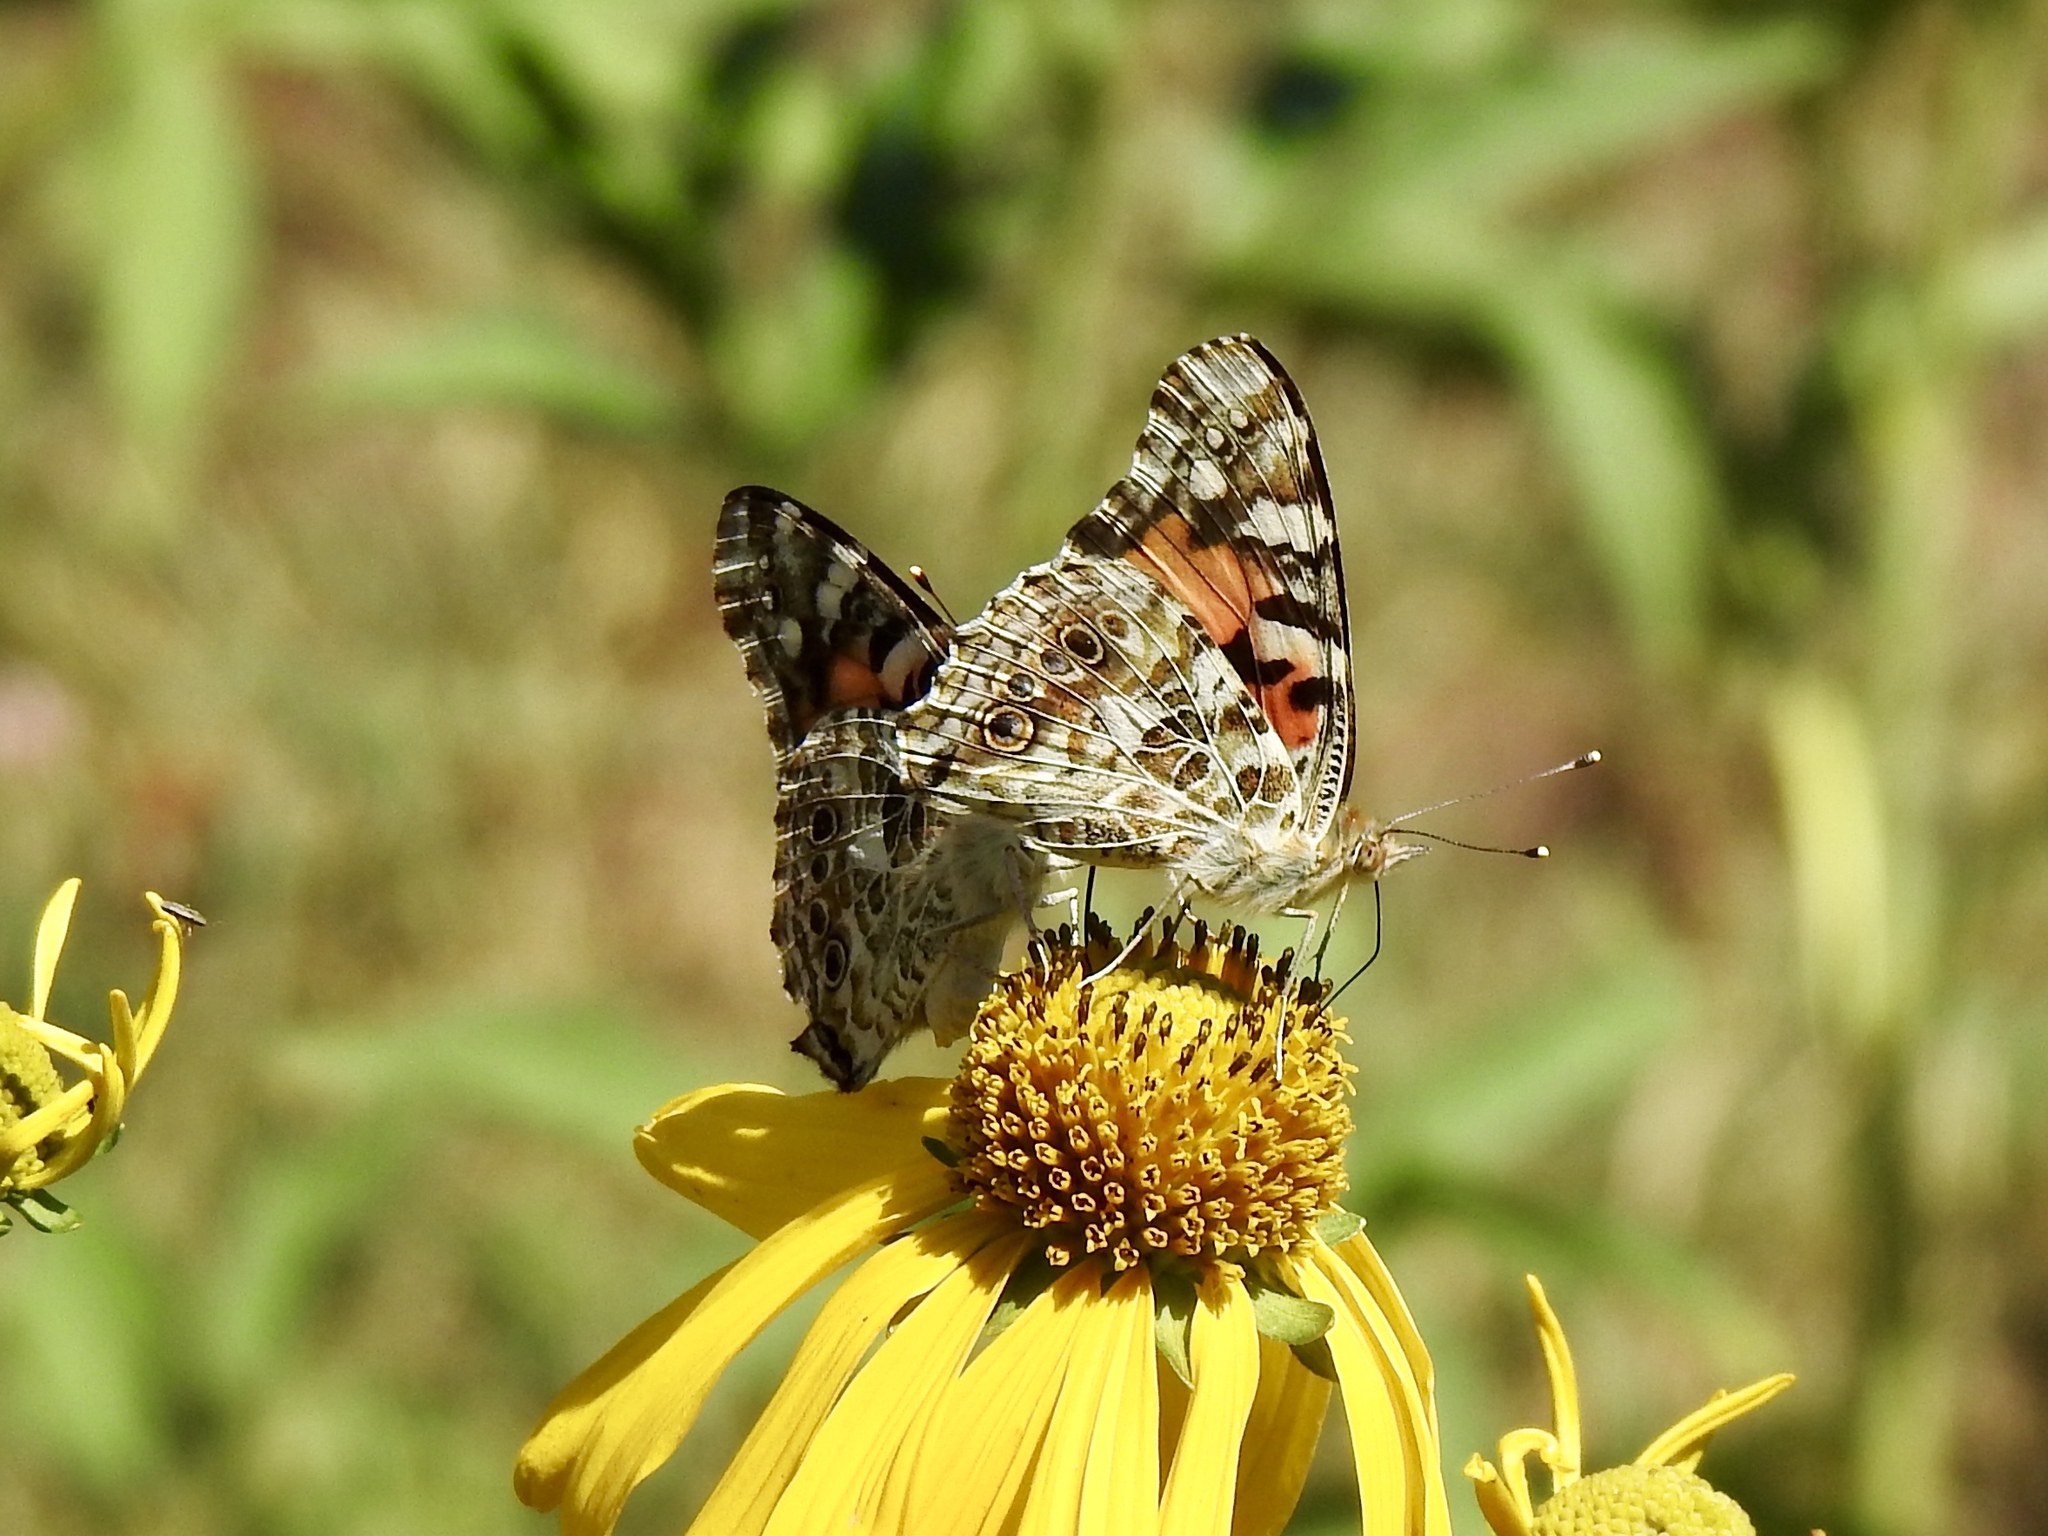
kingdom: Animalia
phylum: Arthropoda
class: Insecta
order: Lepidoptera
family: Nymphalidae
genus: Vanessa
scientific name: Vanessa cardui
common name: Painted lady
